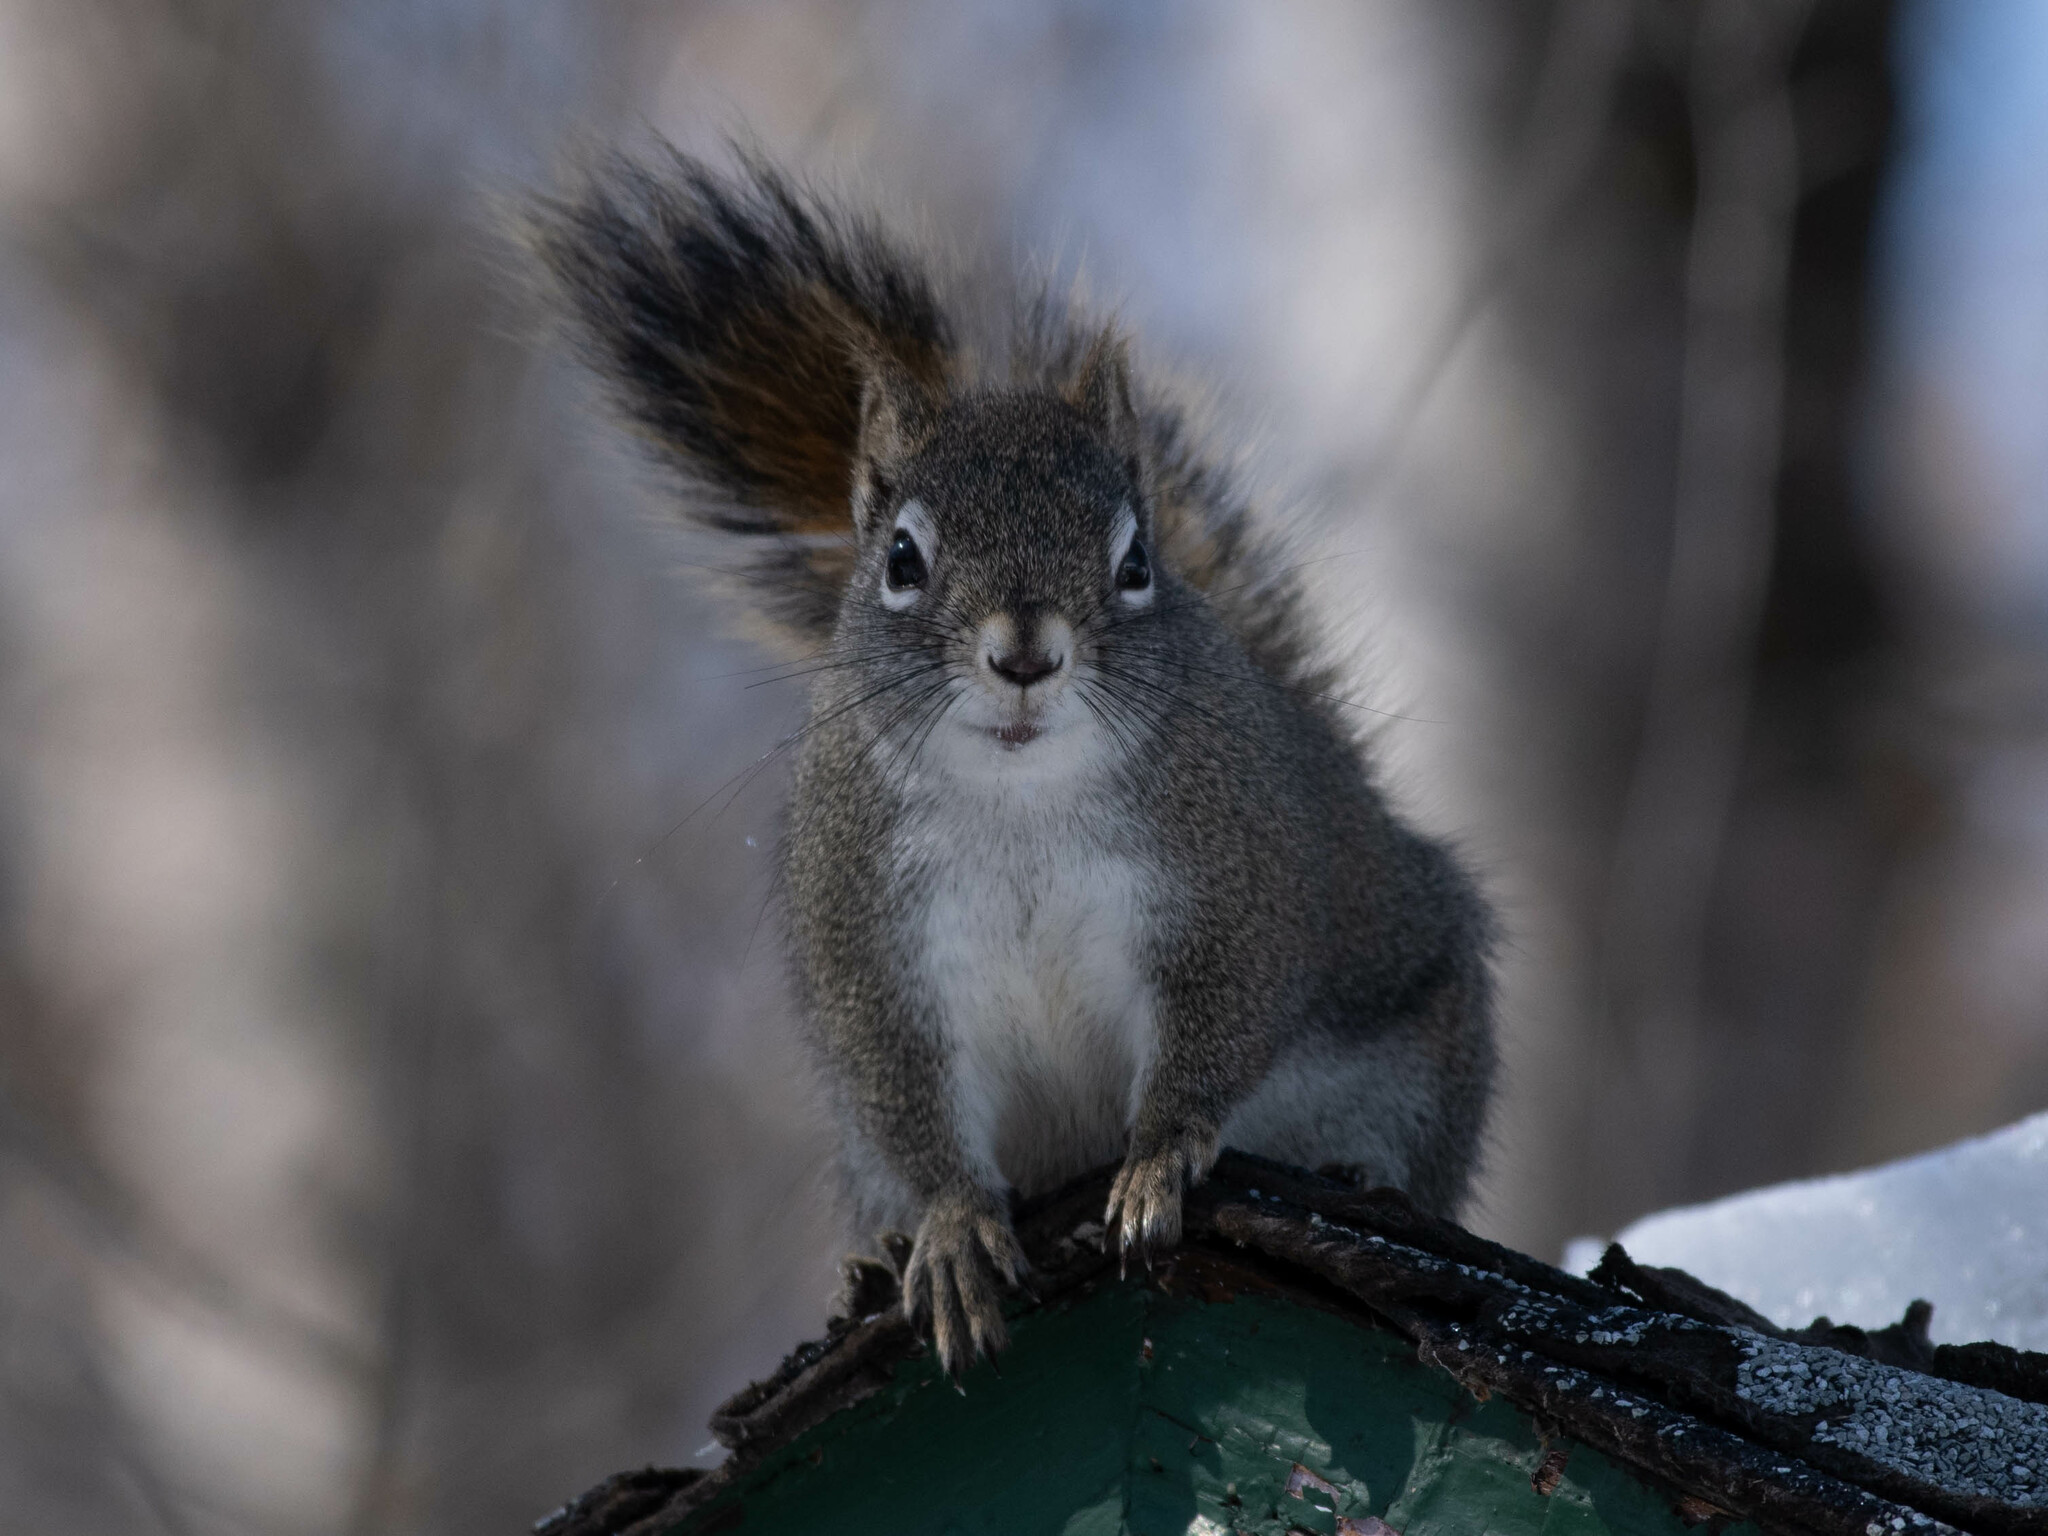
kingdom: Animalia
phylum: Chordata
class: Mammalia
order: Rodentia
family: Sciuridae
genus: Tamiasciurus
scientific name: Tamiasciurus hudsonicus
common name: Red squirrel
